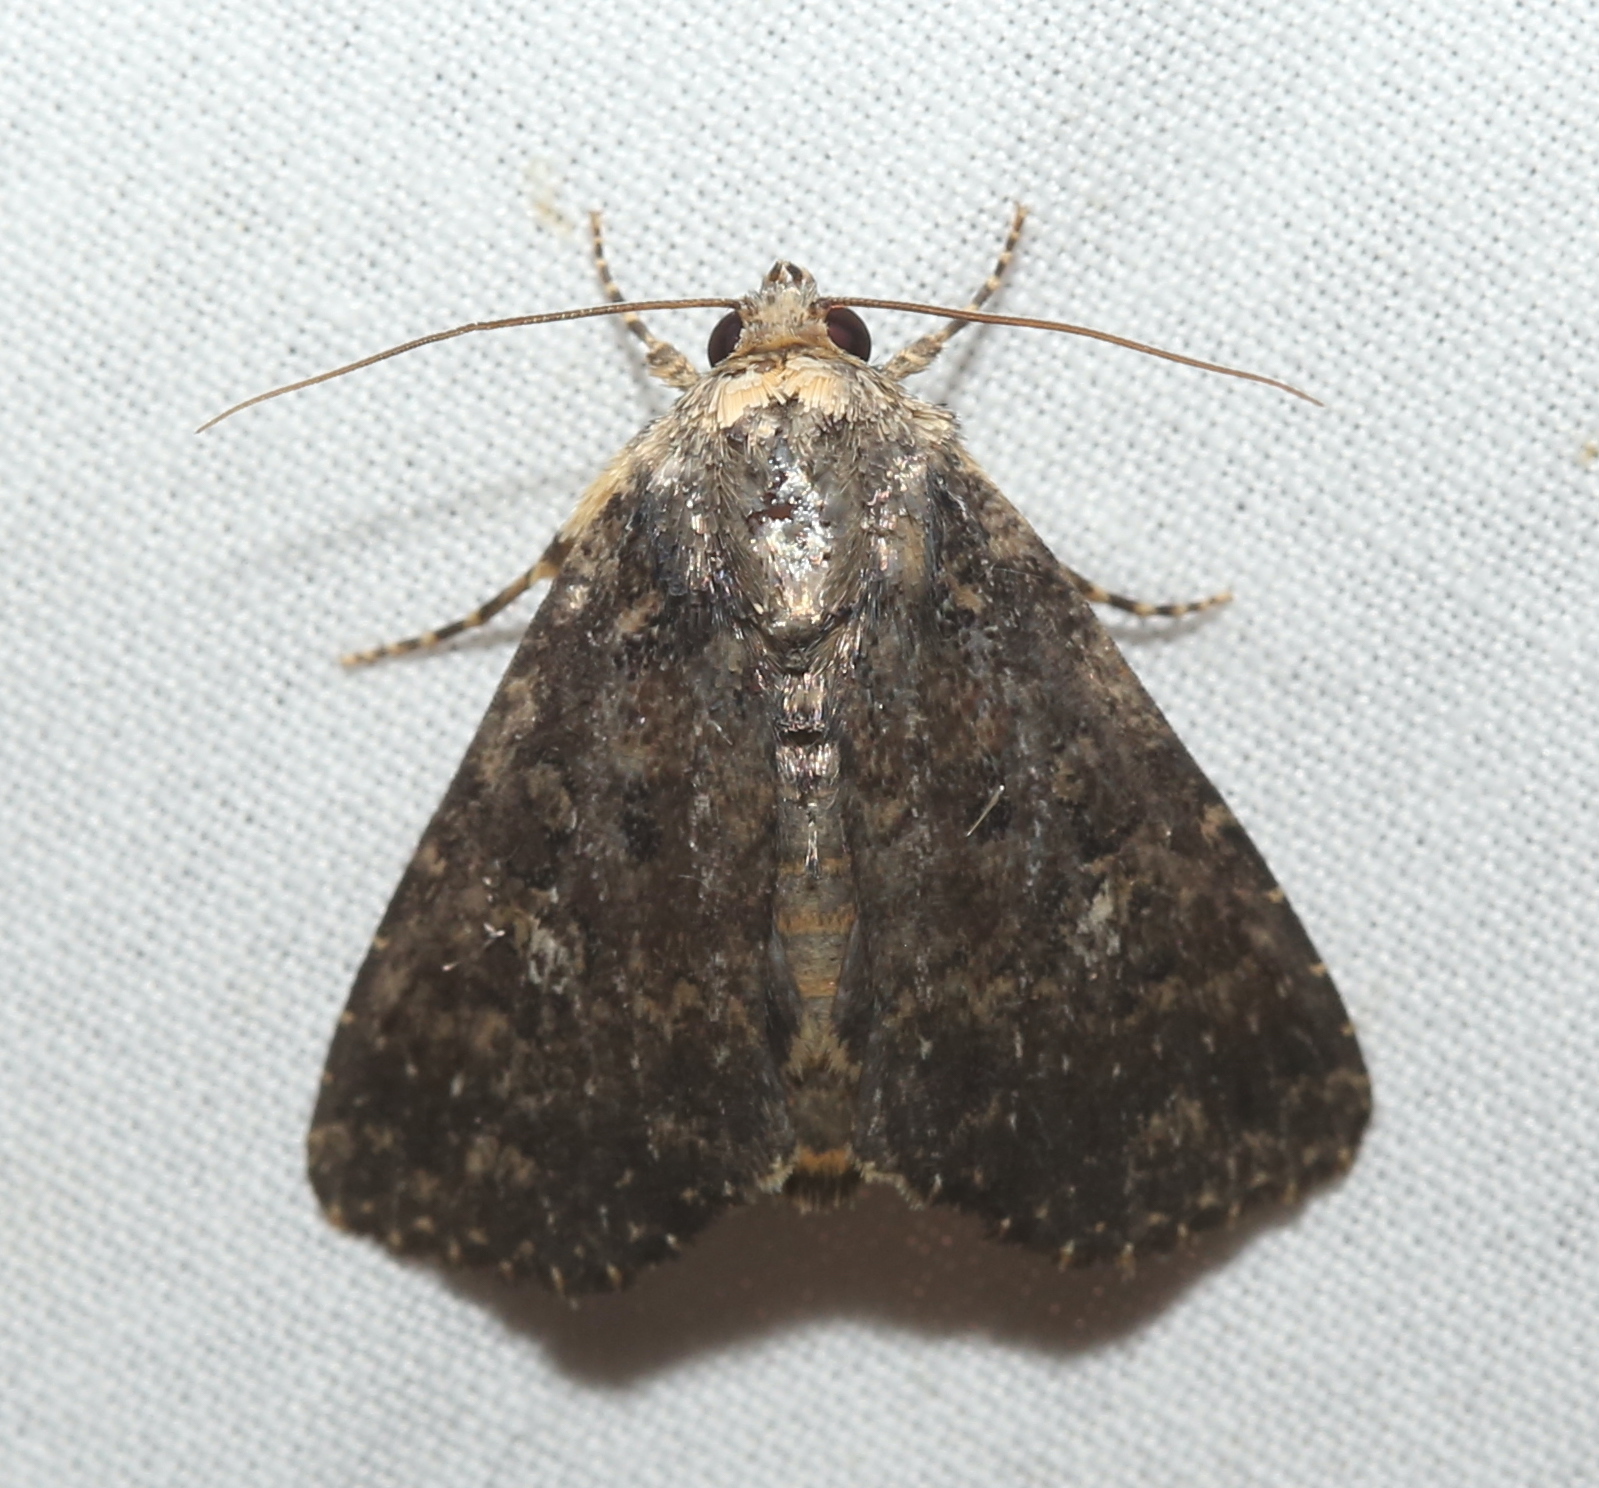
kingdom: Animalia
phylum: Arthropoda
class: Insecta
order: Lepidoptera
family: Noctuidae
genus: Condica
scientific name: Condica vecors
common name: Dusky groundling
